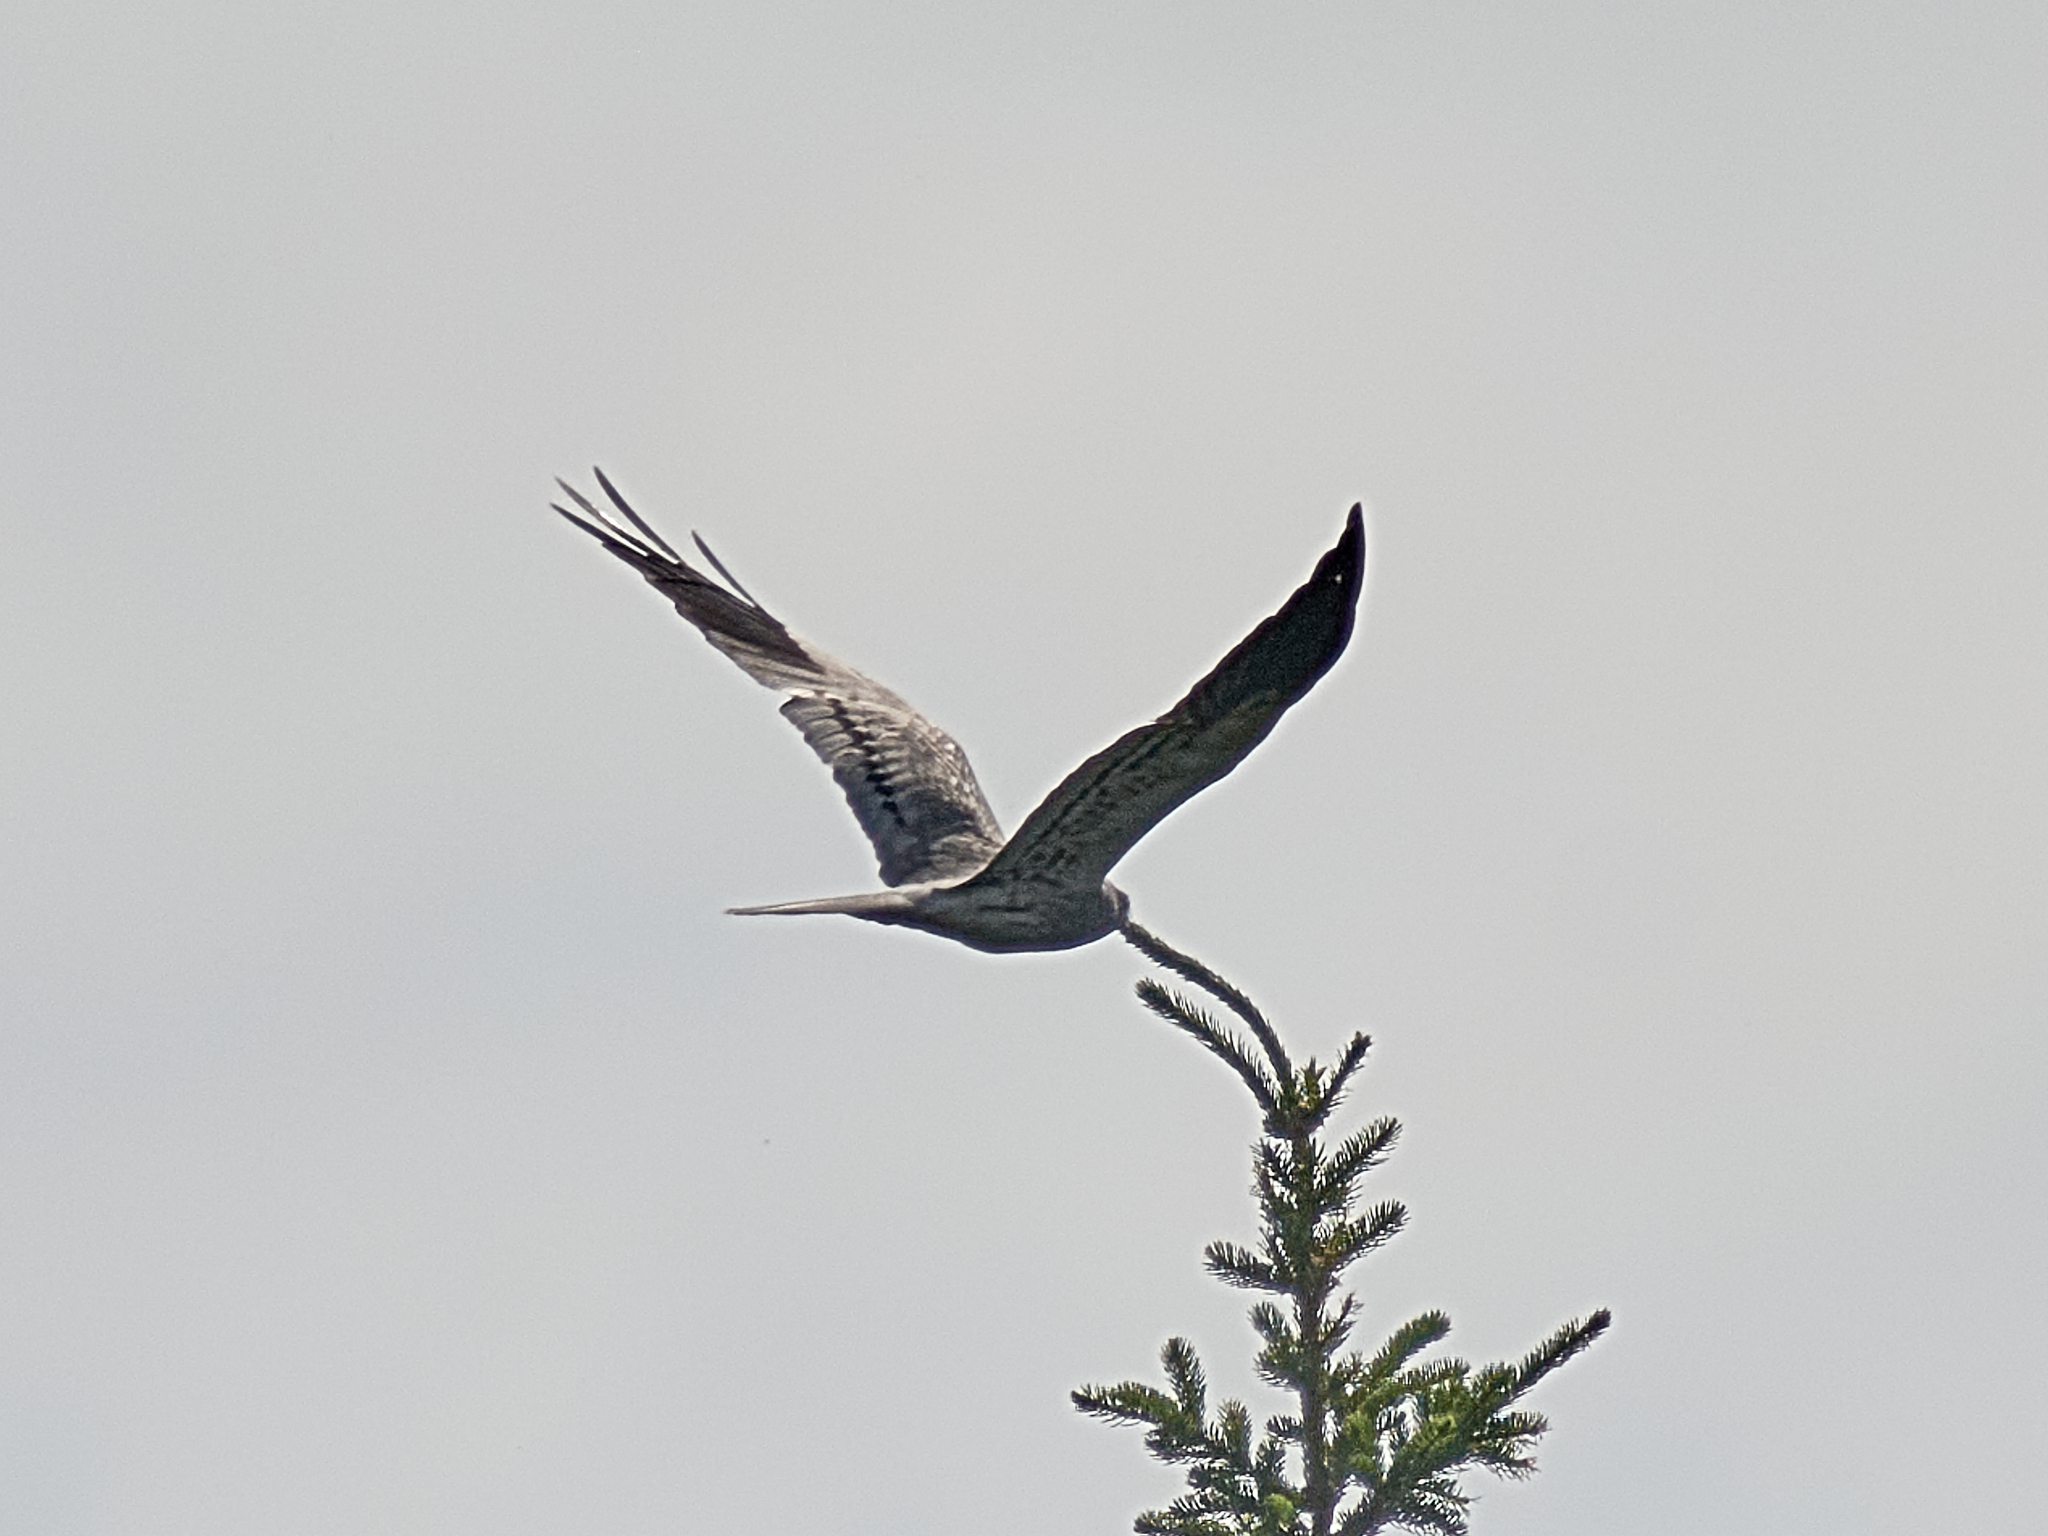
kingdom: Animalia
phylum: Chordata
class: Aves
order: Accipitriformes
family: Accipitridae
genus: Circus
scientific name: Circus pygargus
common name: Montagu's harrier
